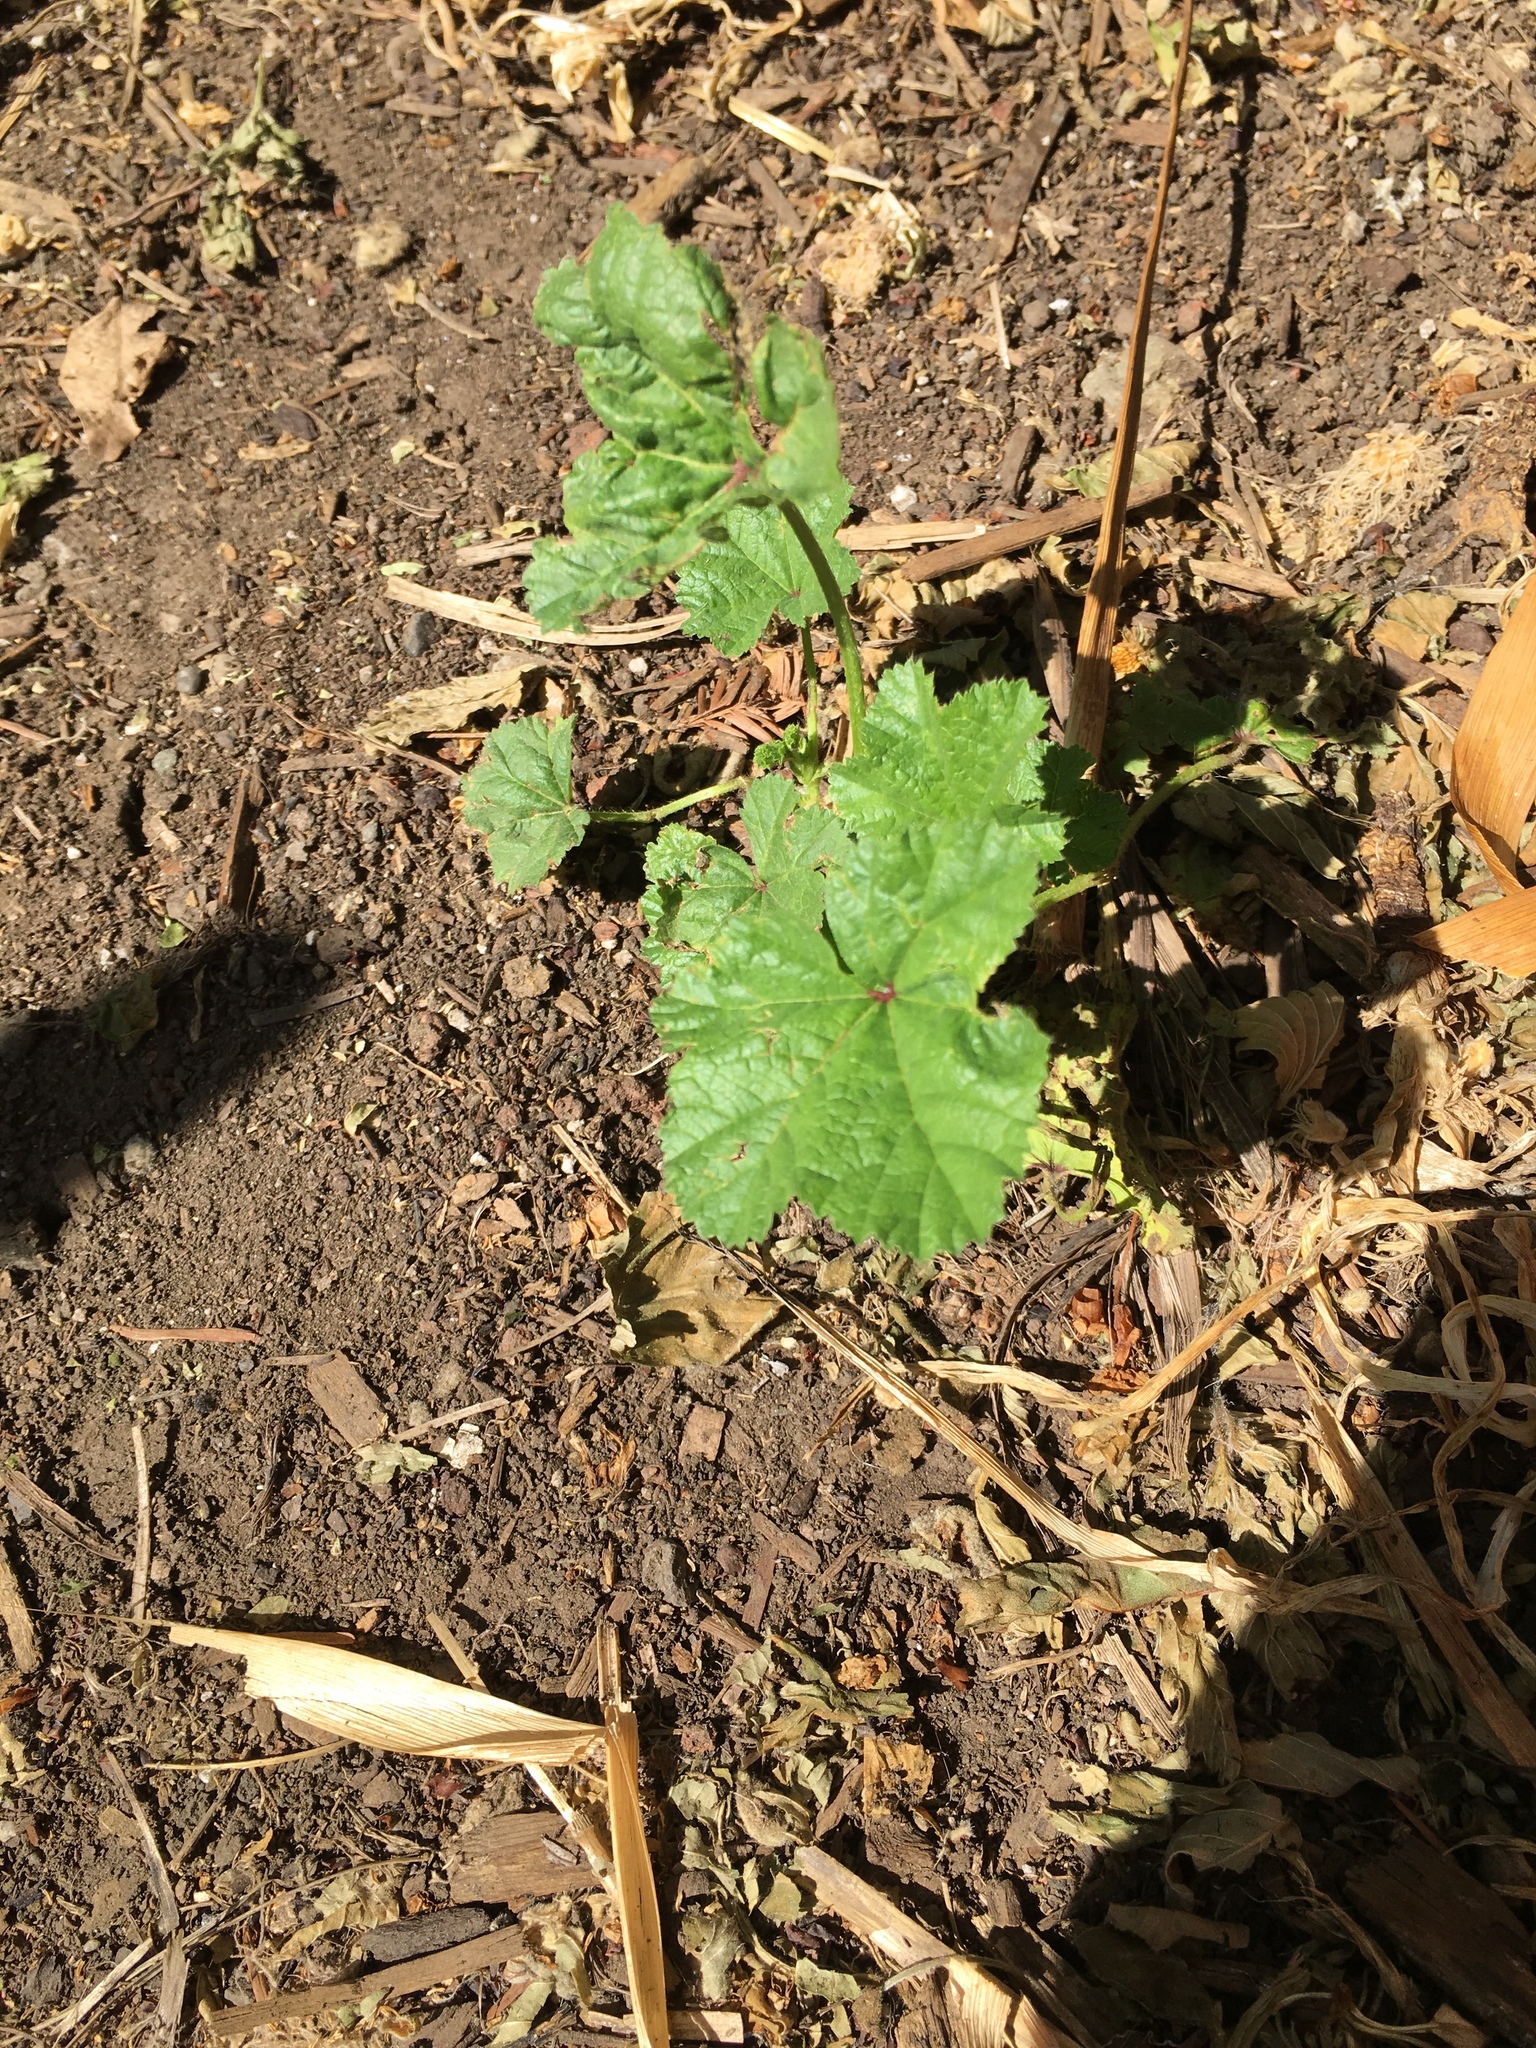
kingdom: Plantae
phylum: Tracheophyta
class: Magnoliopsida
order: Malvales
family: Malvaceae
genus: Malva
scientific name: Malva
